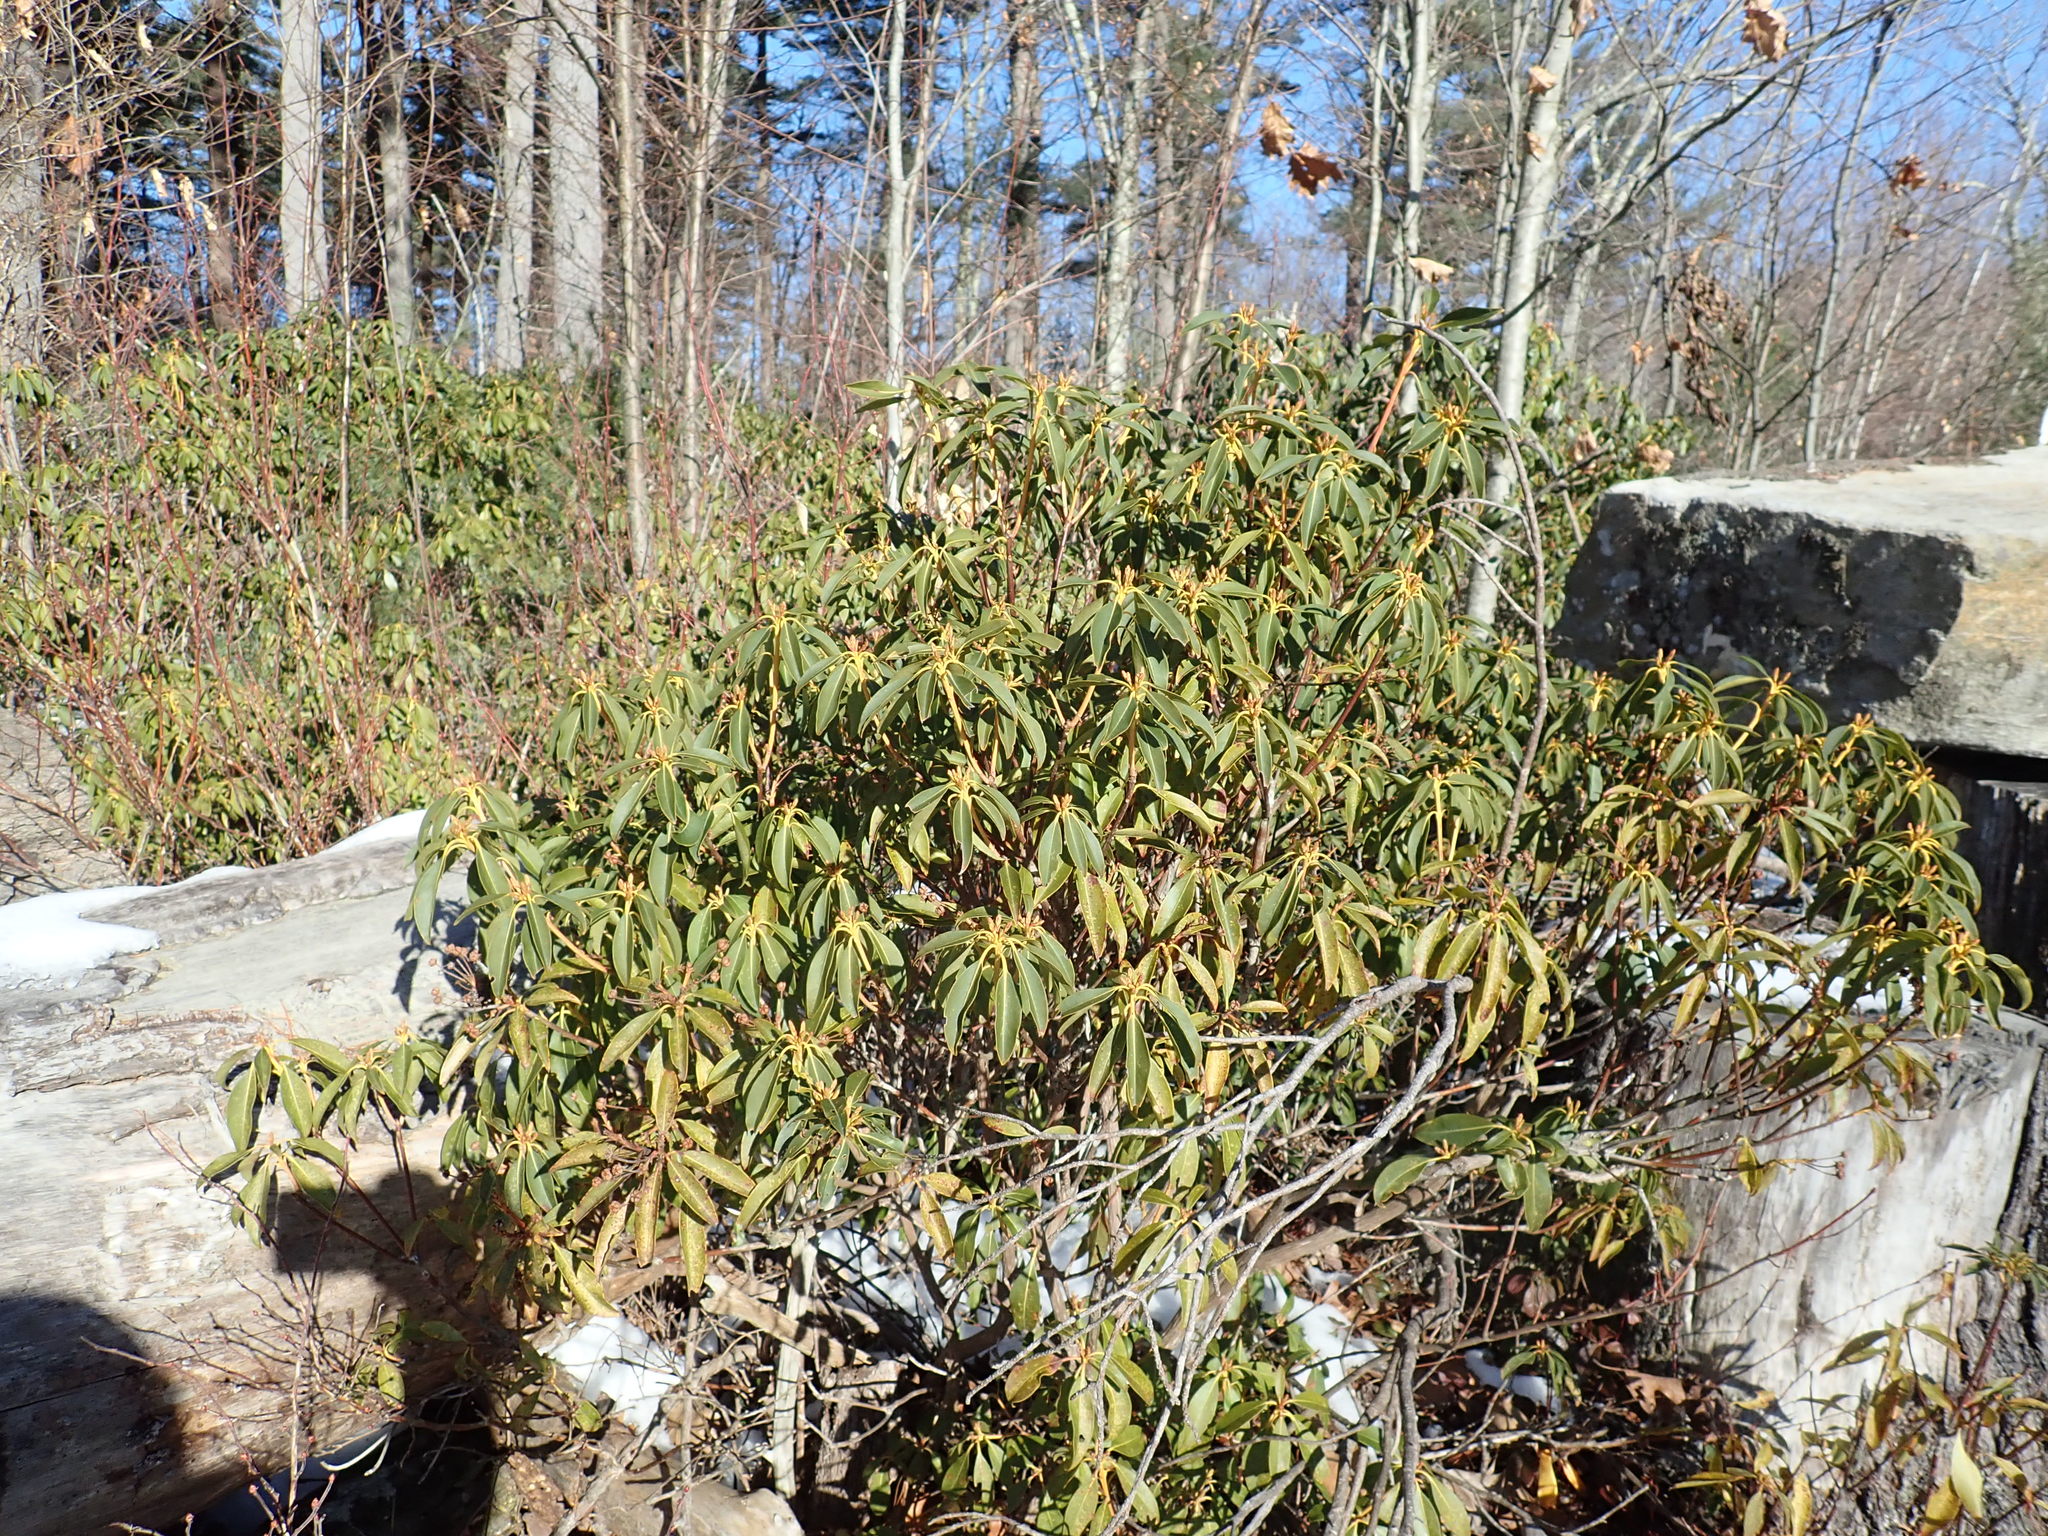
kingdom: Plantae
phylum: Tracheophyta
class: Magnoliopsida
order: Ericales
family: Ericaceae
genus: Kalmia
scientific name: Kalmia latifolia
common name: Mountain-laurel
